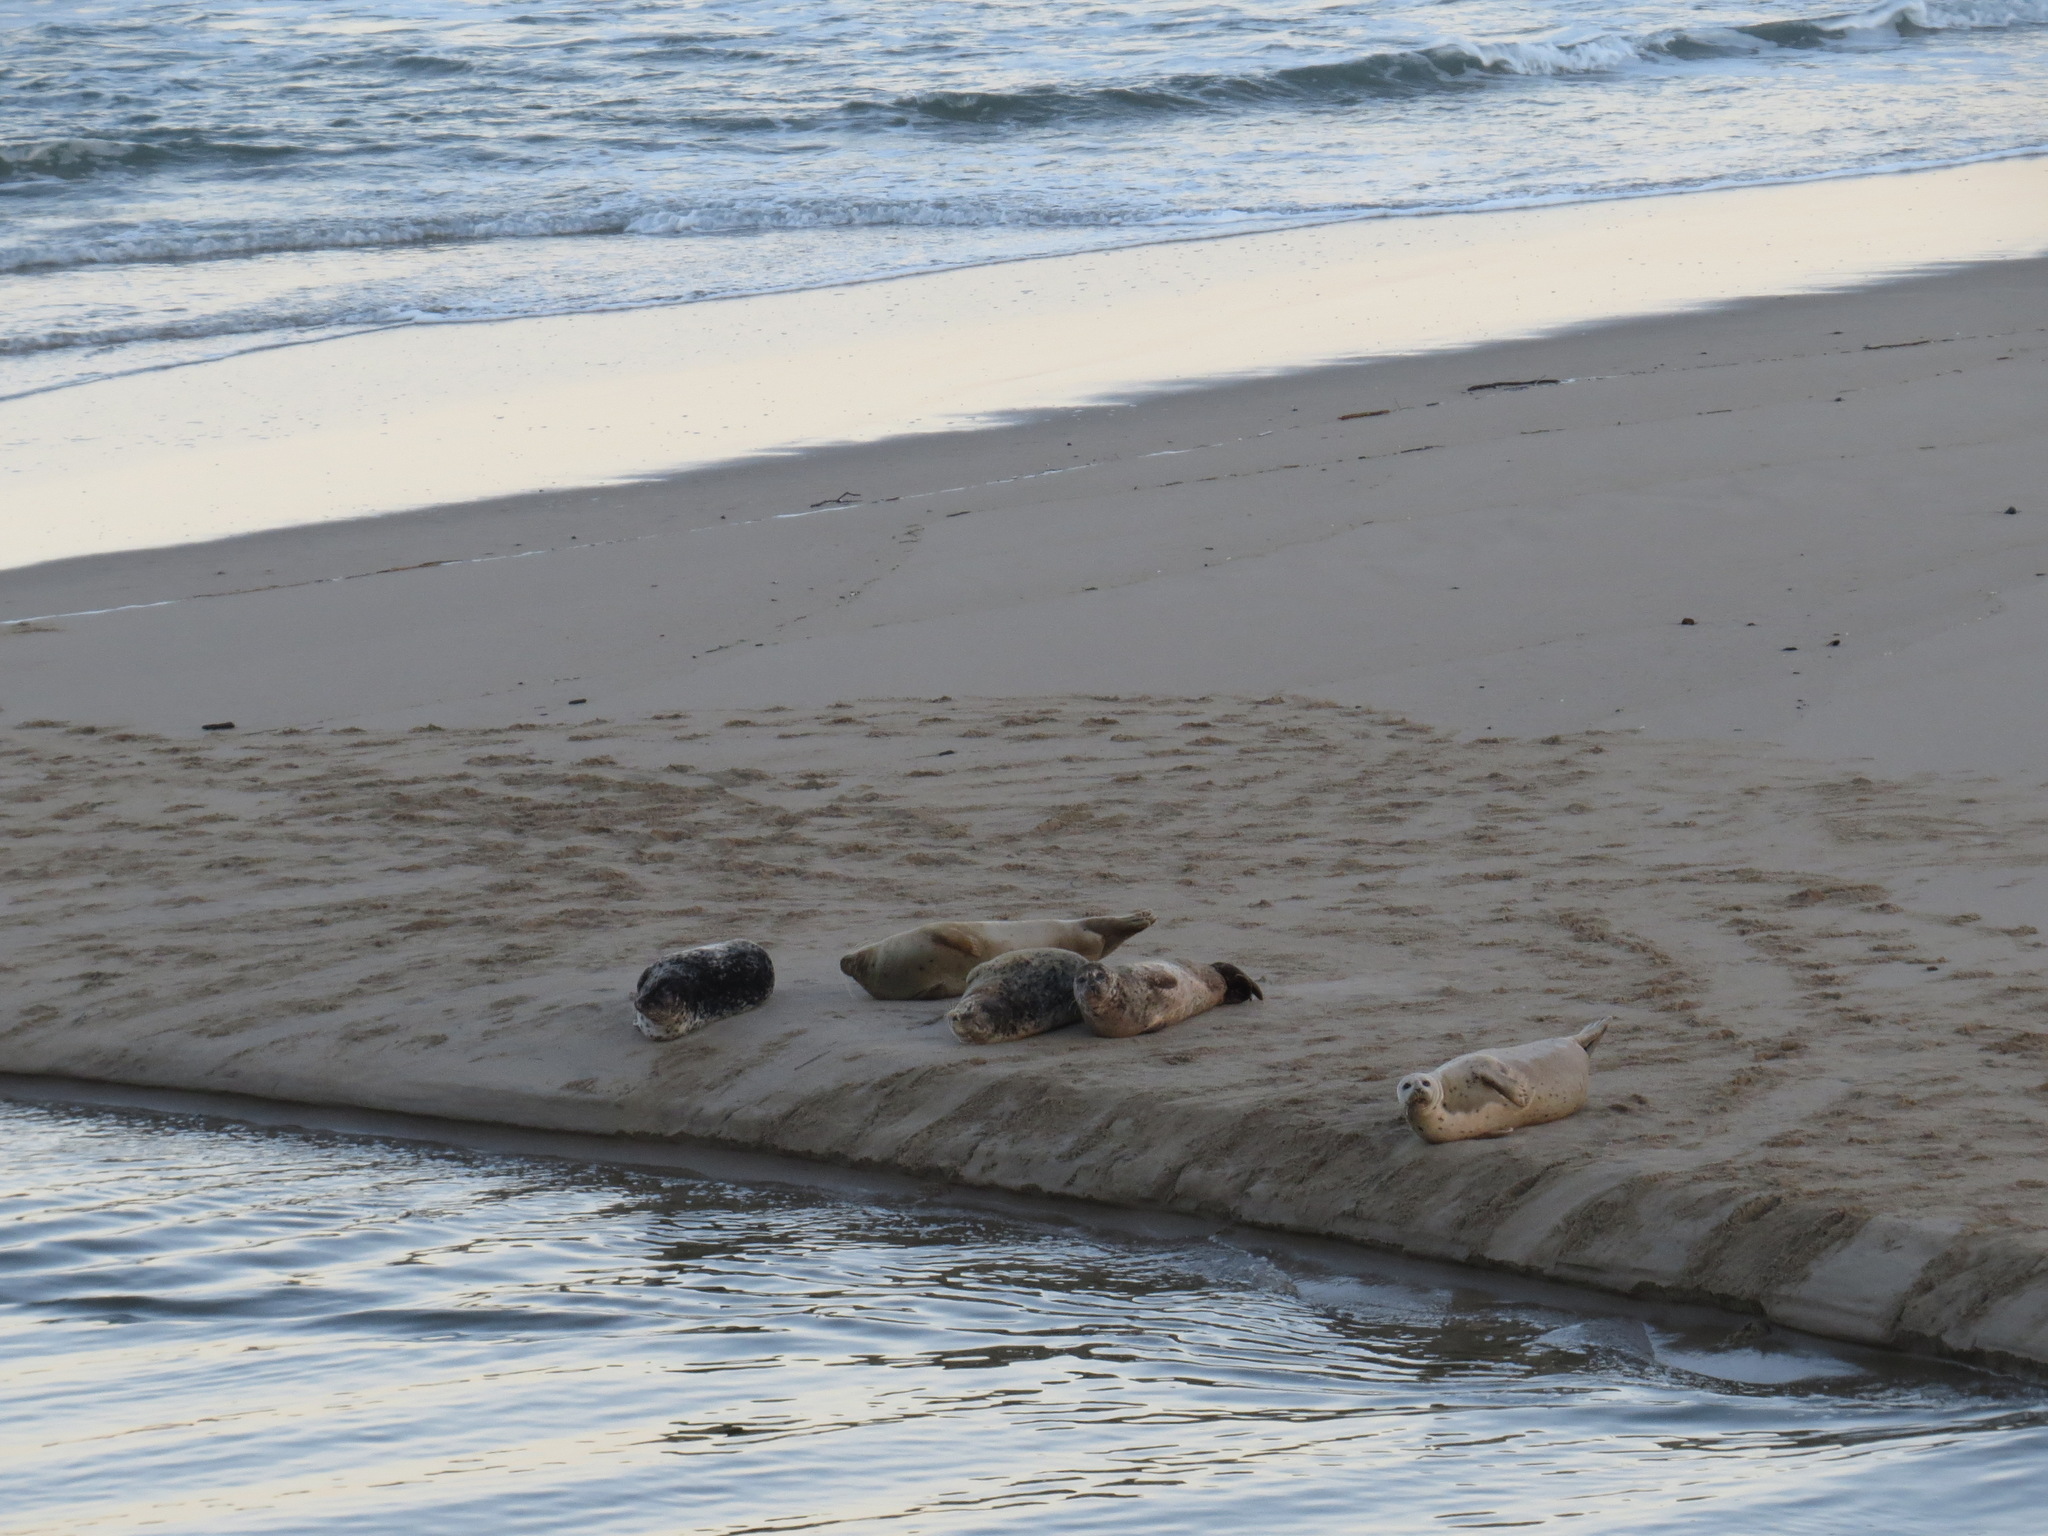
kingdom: Animalia
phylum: Chordata
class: Mammalia
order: Carnivora
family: Phocidae
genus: Phoca
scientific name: Phoca vitulina
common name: Harbor seal
